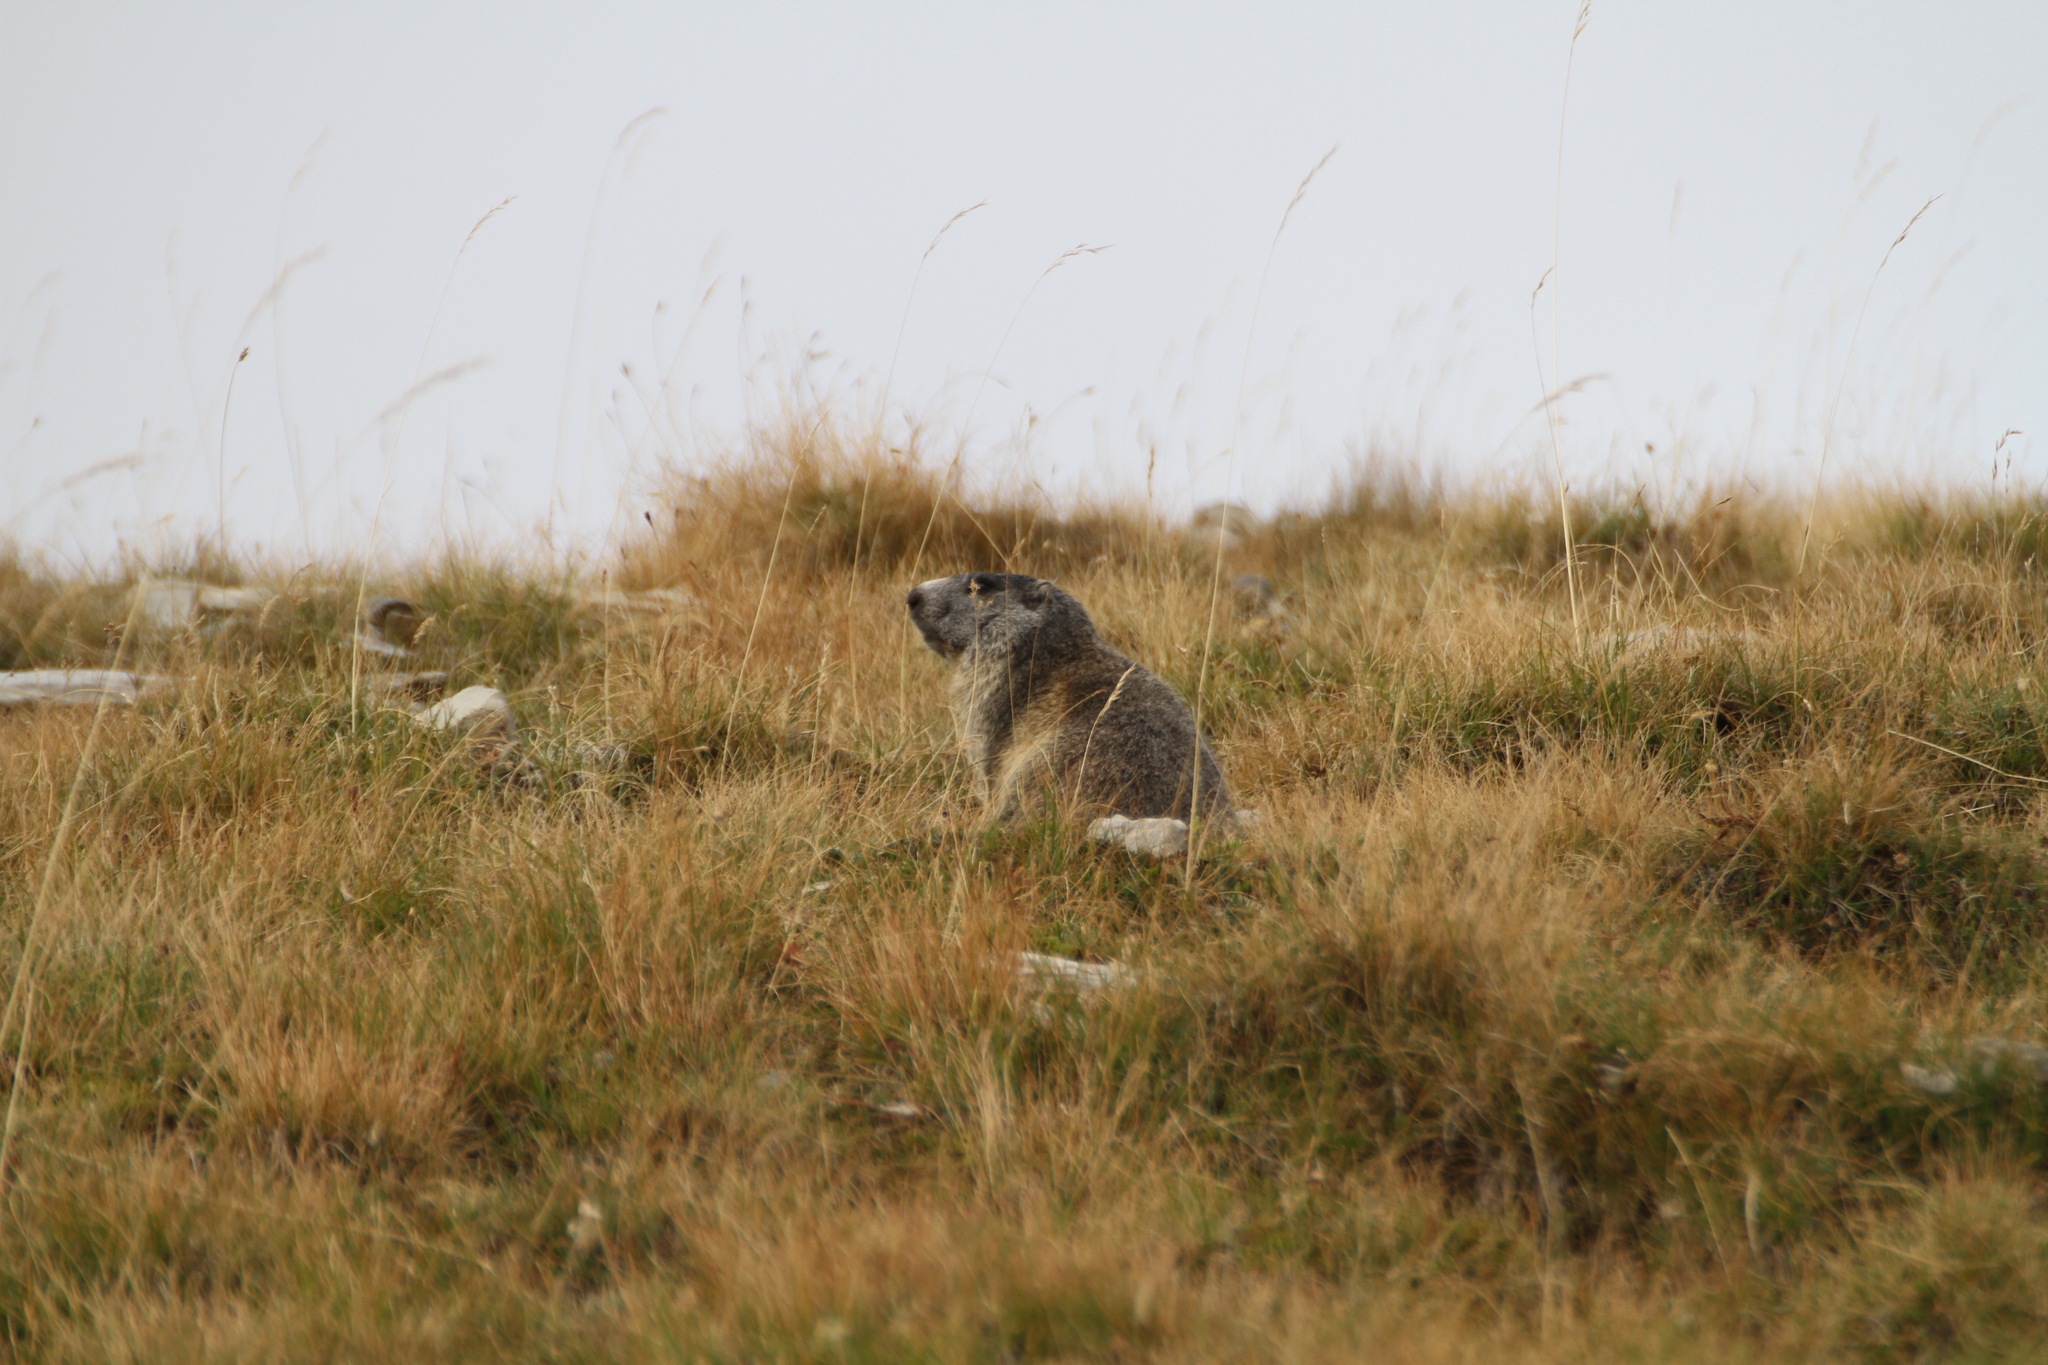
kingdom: Animalia
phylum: Chordata
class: Mammalia
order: Rodentia
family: Sciuridae
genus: Marmota
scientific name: Marmota marmota
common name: Alpine marmot
